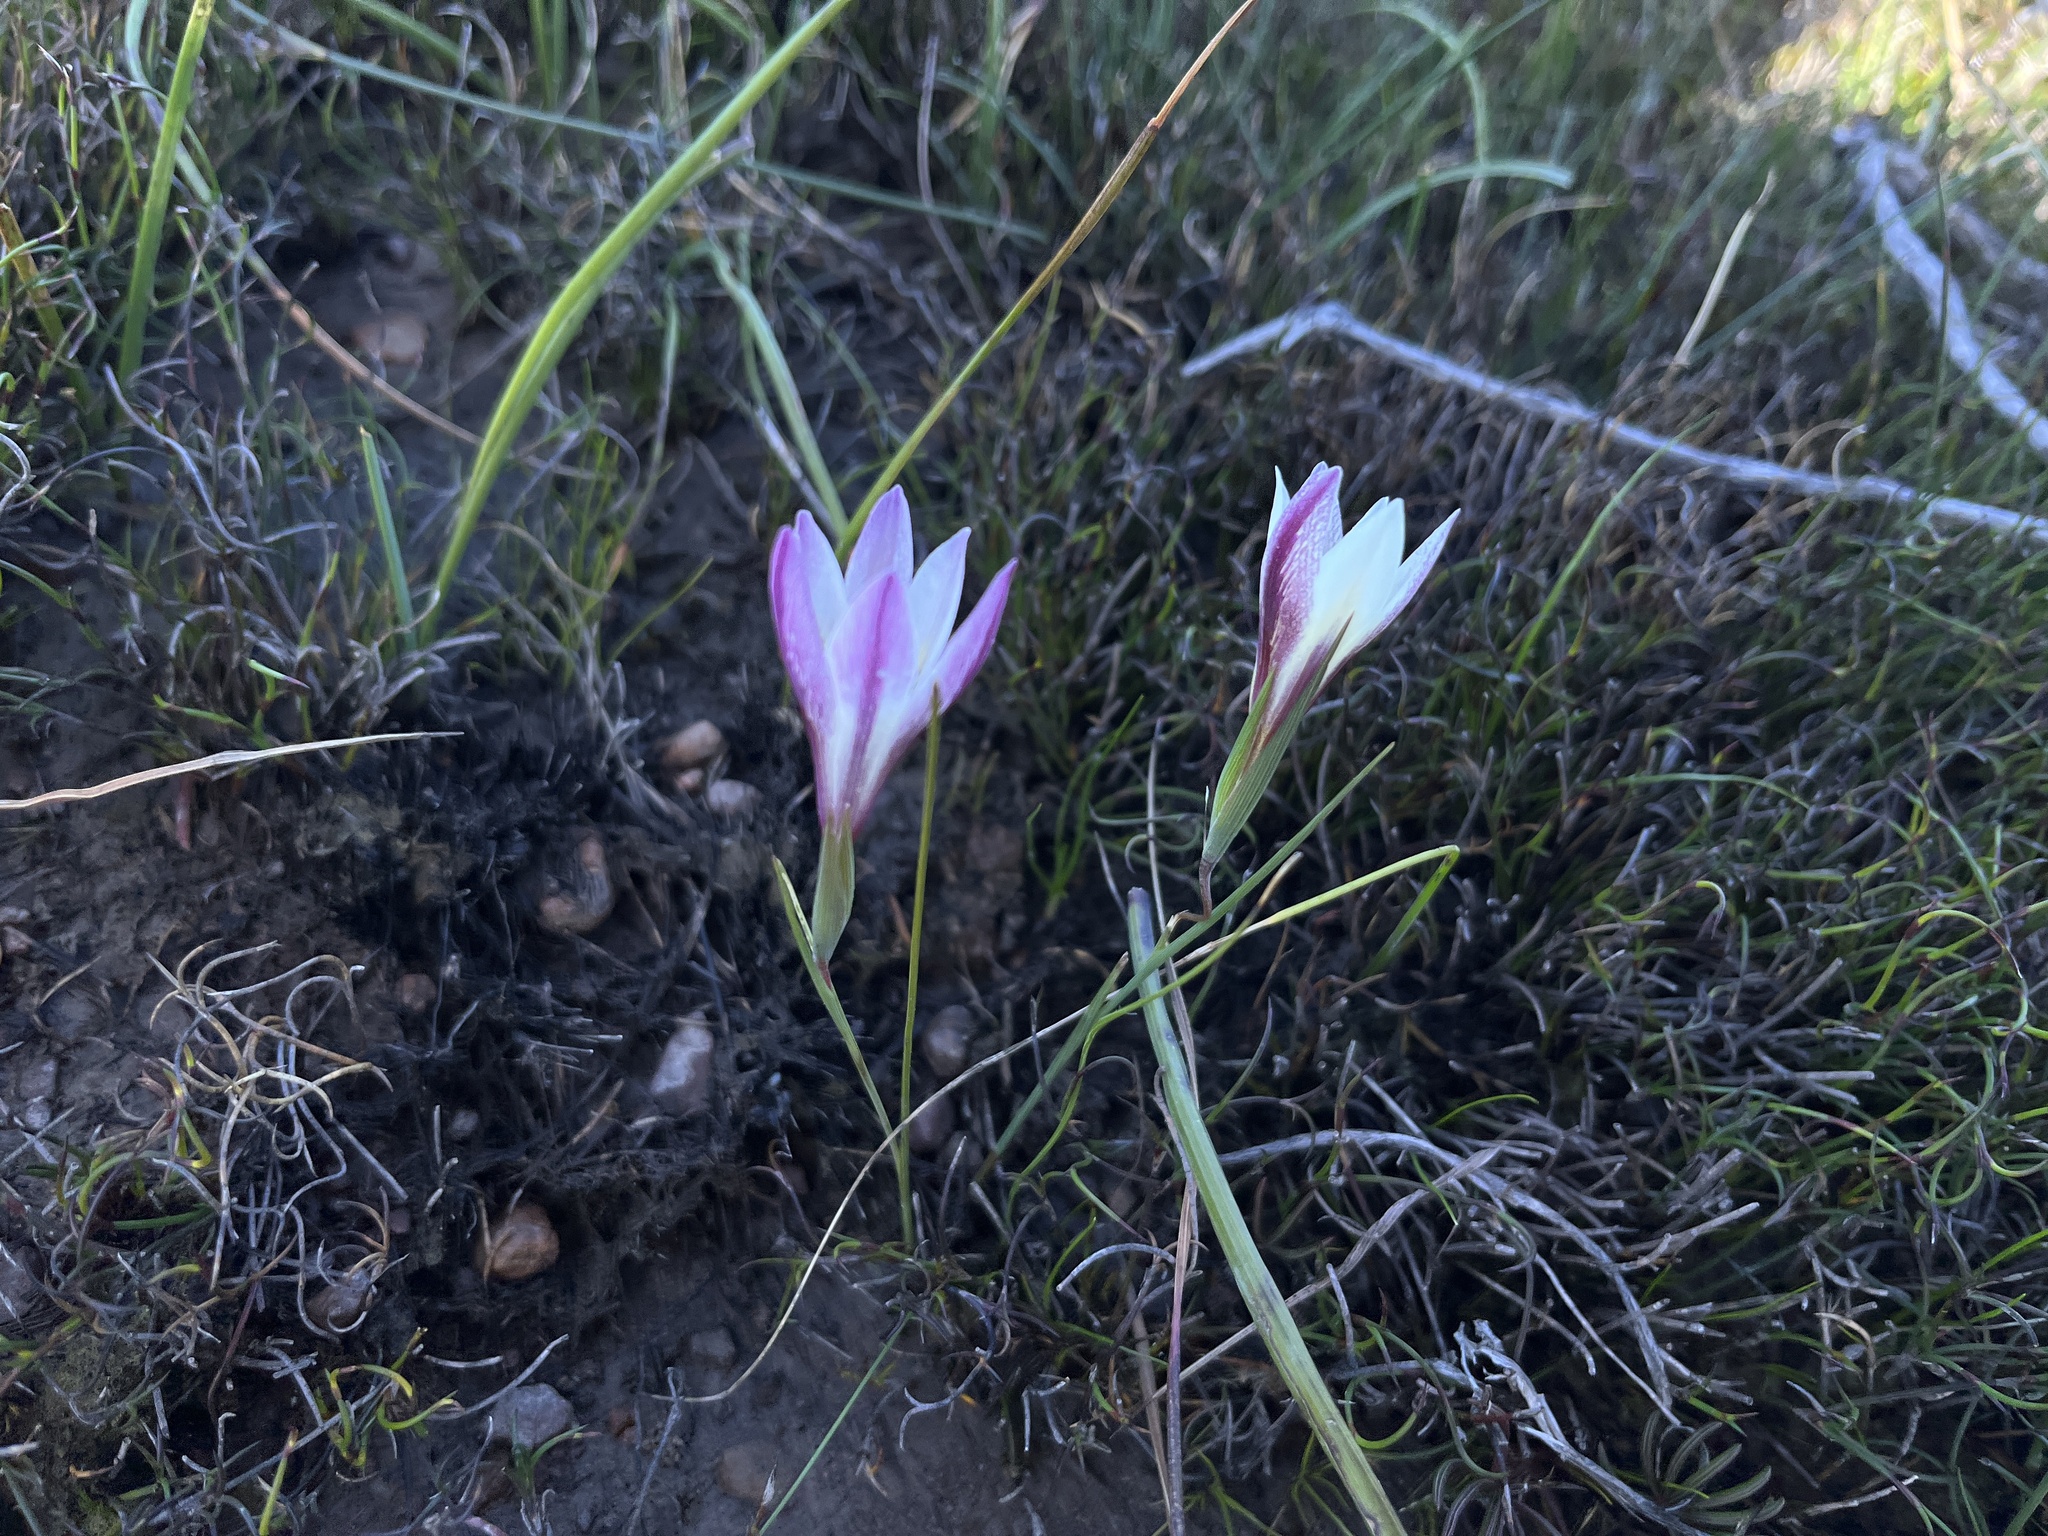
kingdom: Plantae
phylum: Tracheophyta
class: Liliopsida
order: Asparagales
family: Iridaceae
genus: Gladiolus
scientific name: Gladiolus trichonemifolius
